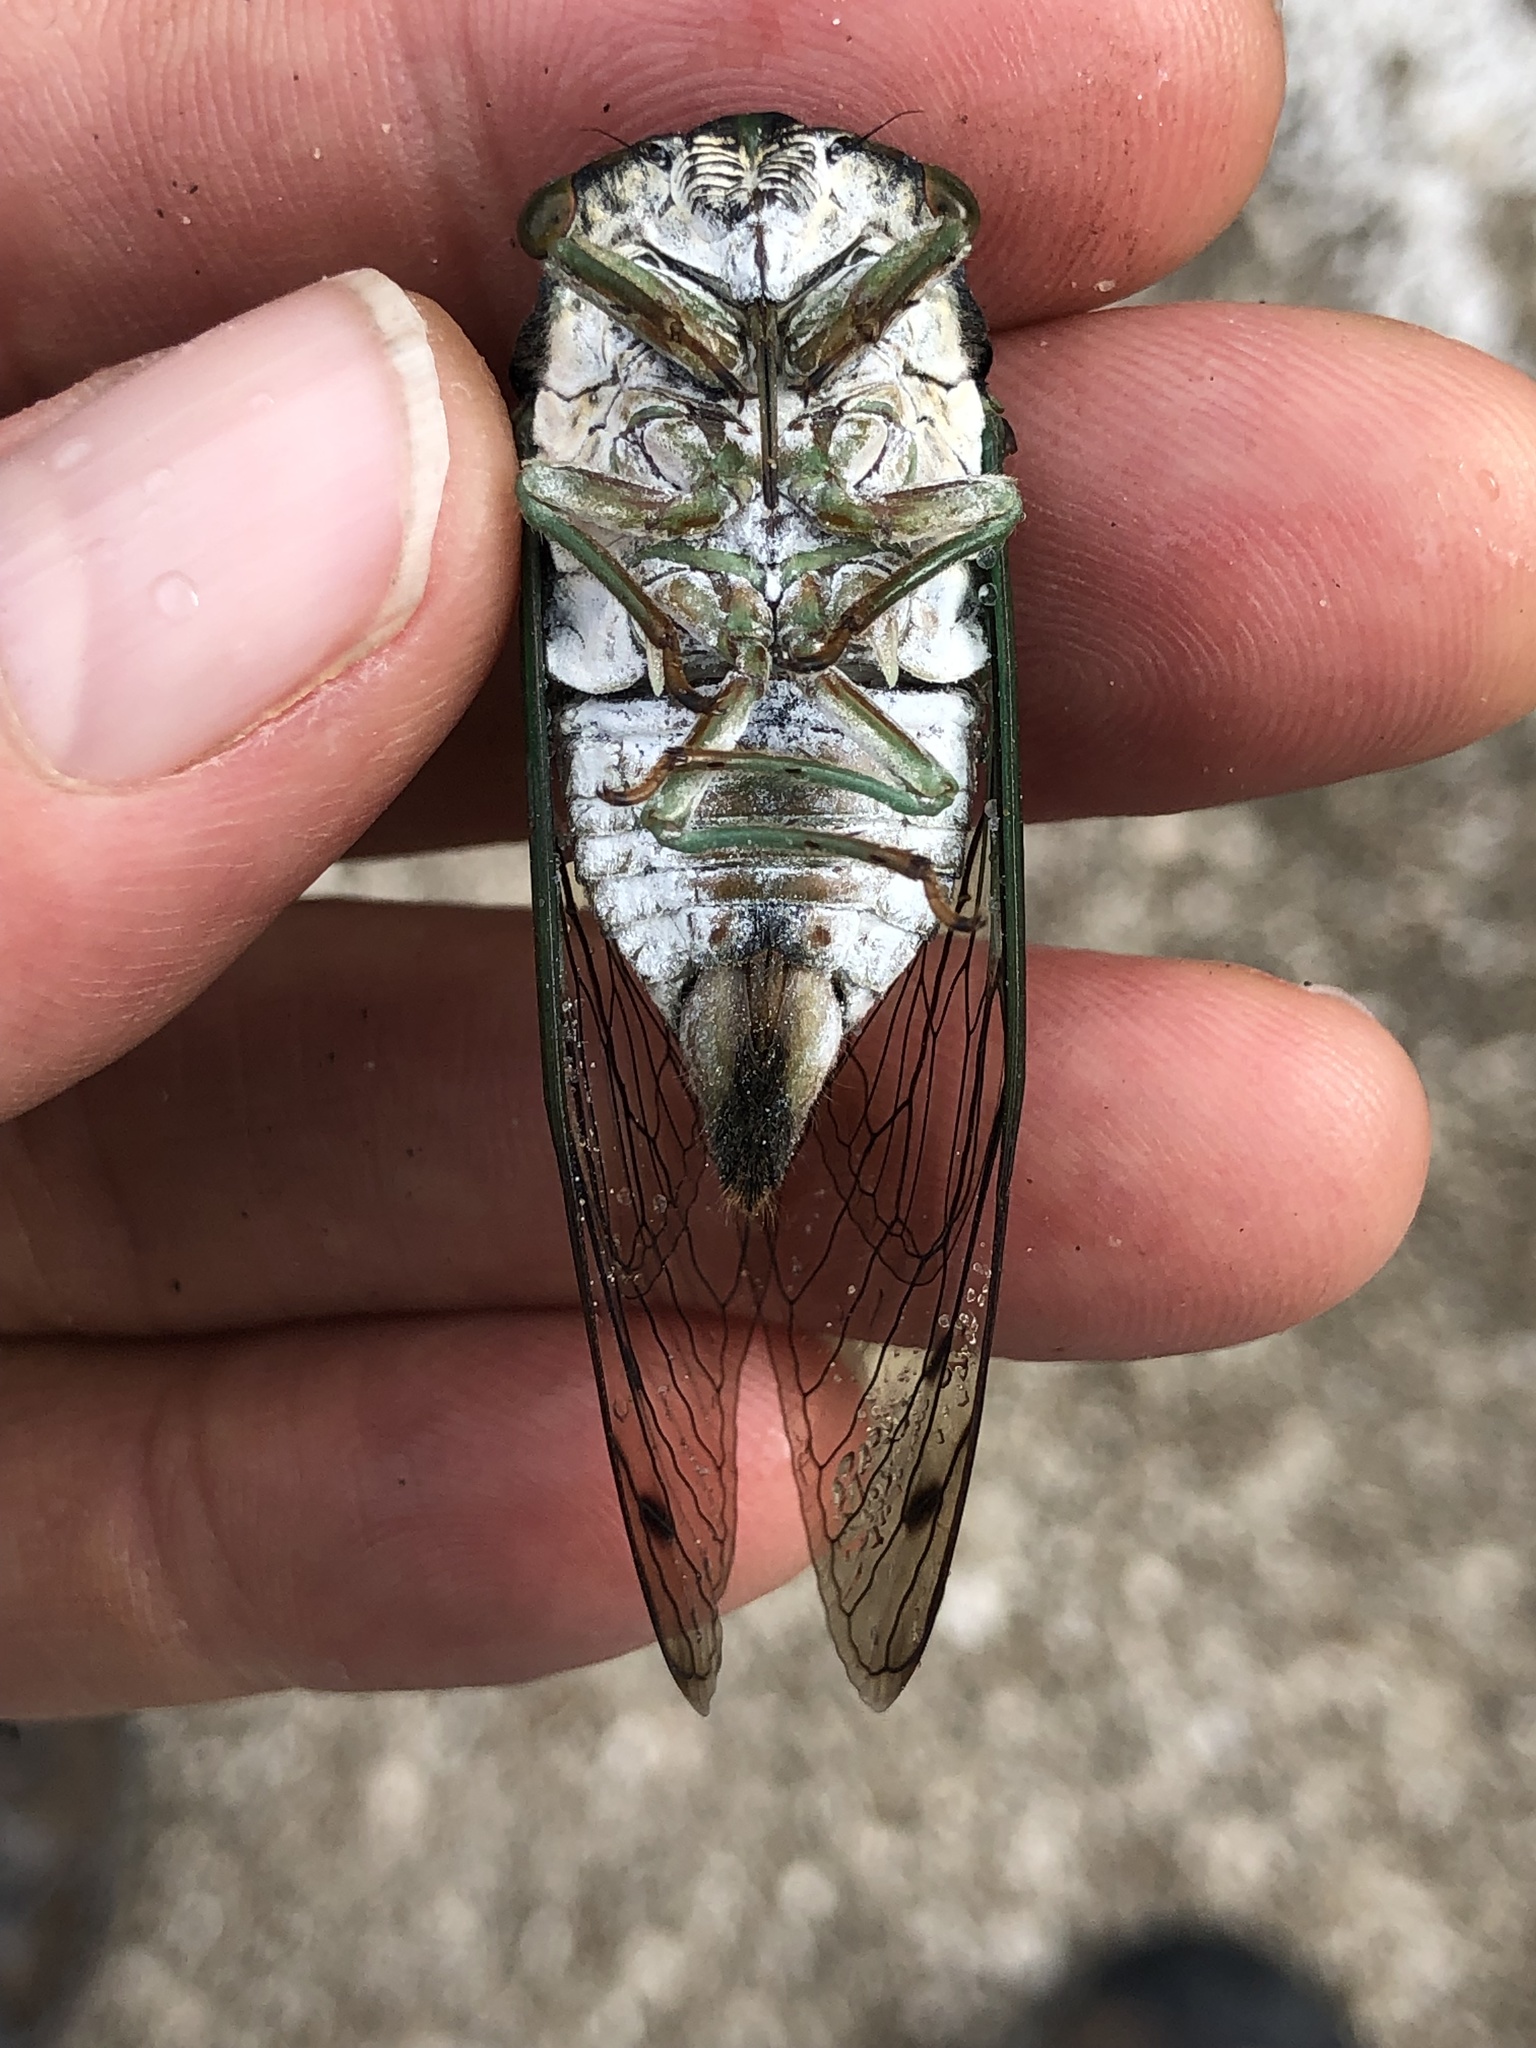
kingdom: Animalia
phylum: Arthropoda
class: Insecta
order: Hemiptera
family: Cicadidae
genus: Neotibicen
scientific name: Neotibicen tibicen
